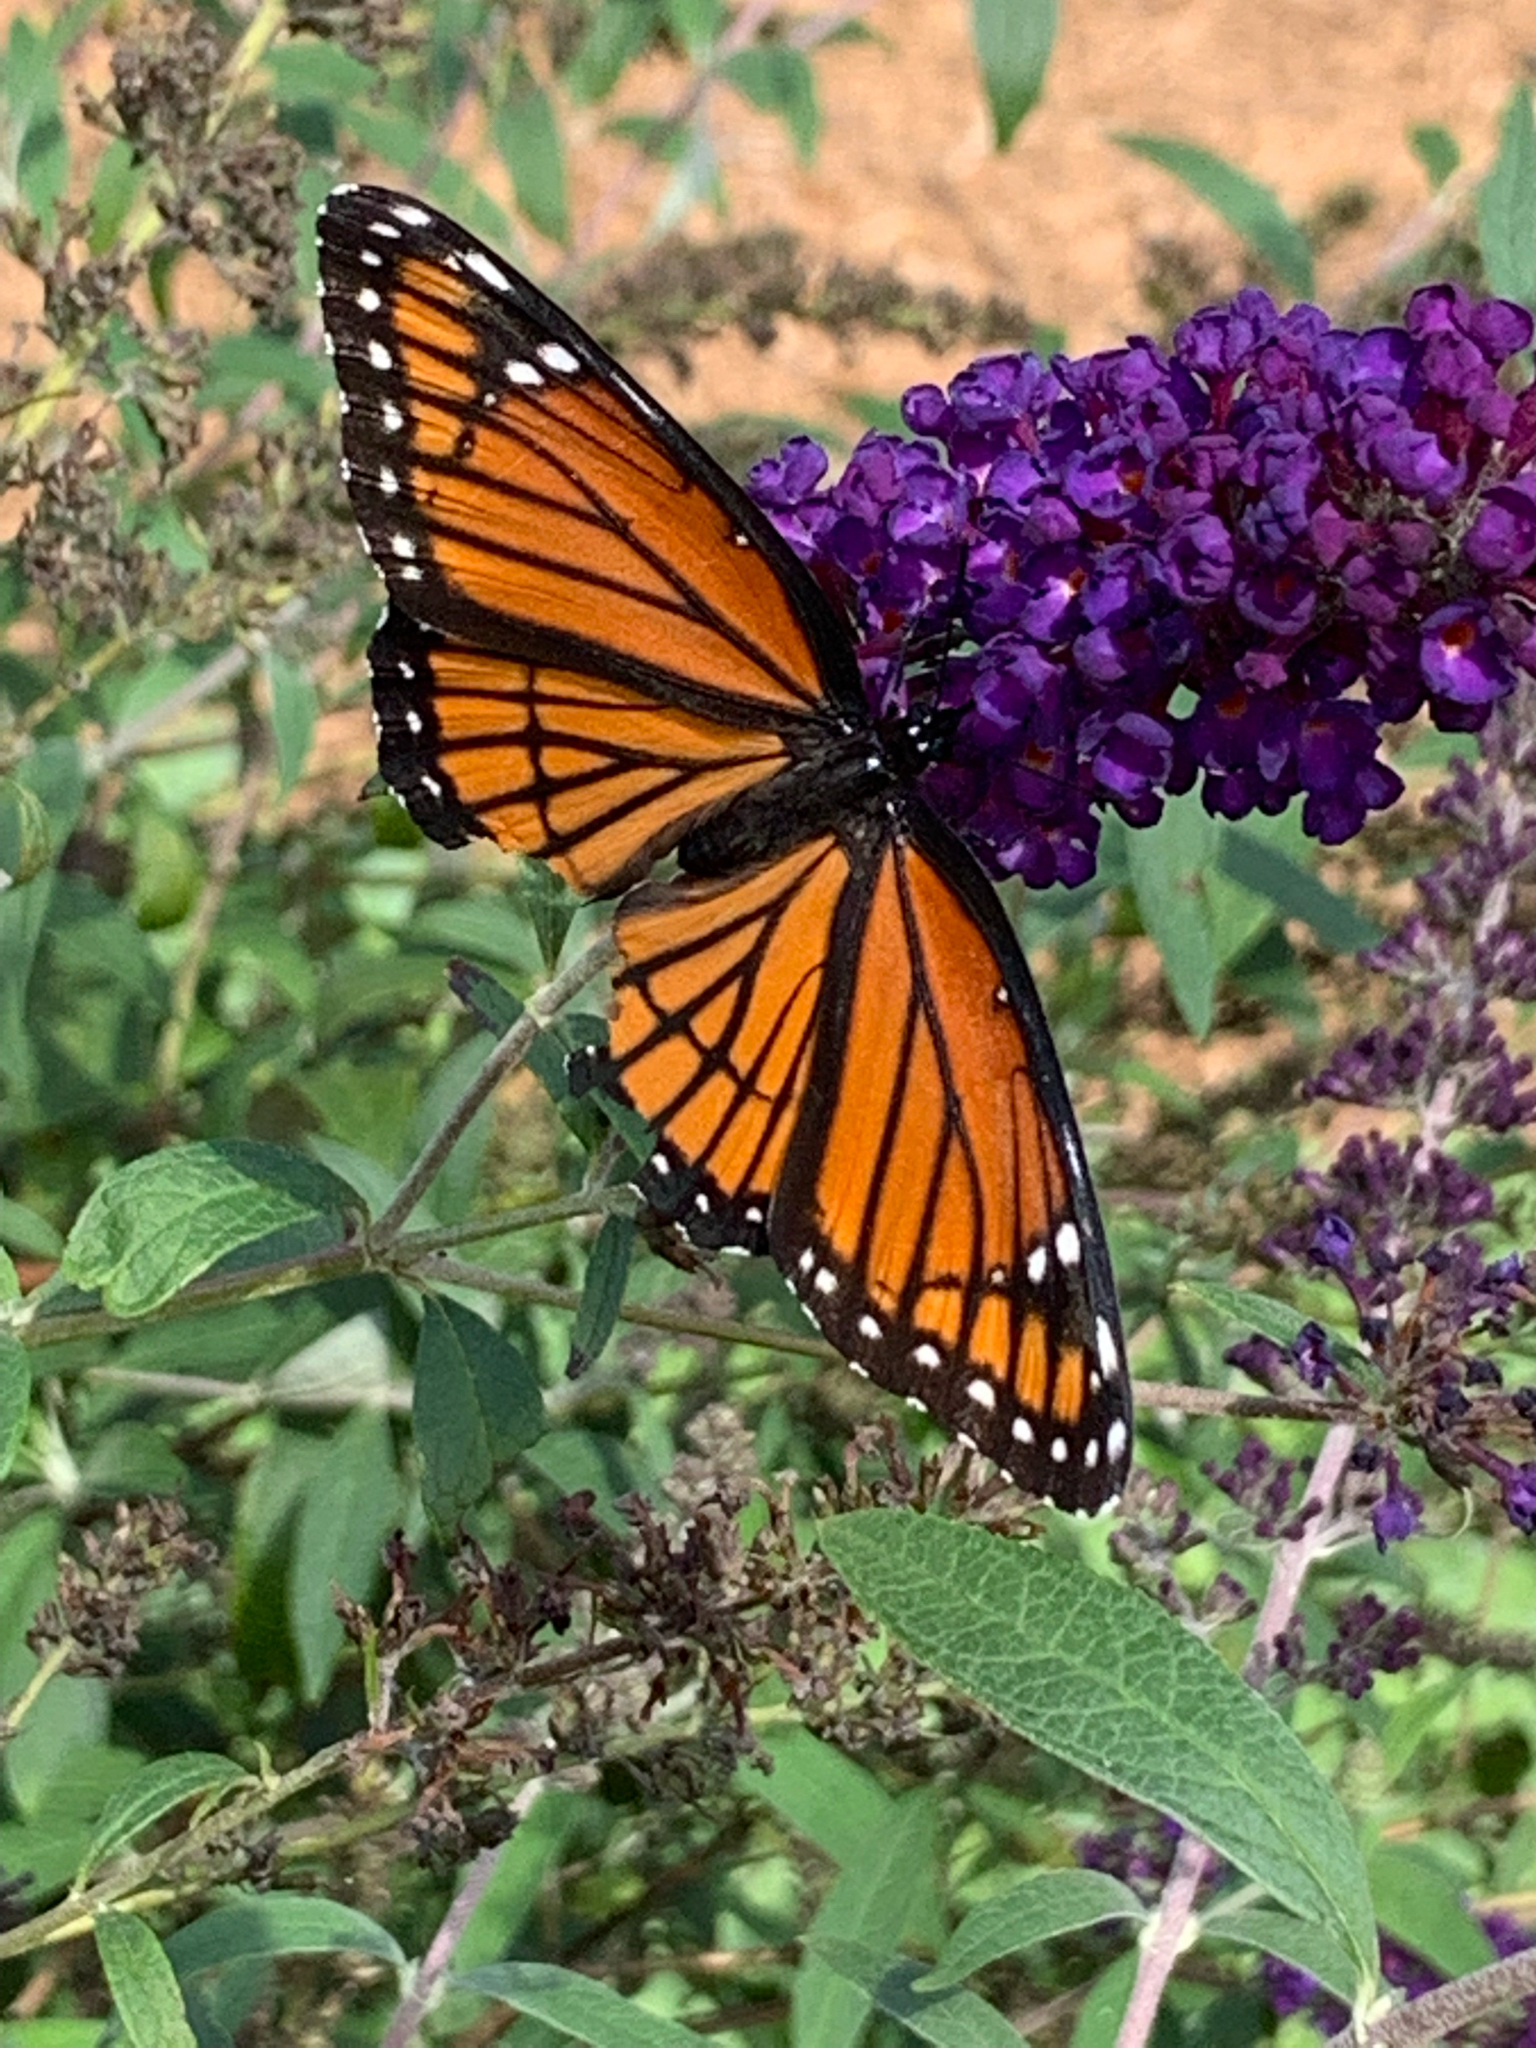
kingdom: Animalia
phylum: Arthropoda
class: Insecta
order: Lepidoptera
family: Nymphalidae
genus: Limenitis
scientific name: Limenitis archippus
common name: Viceroy
